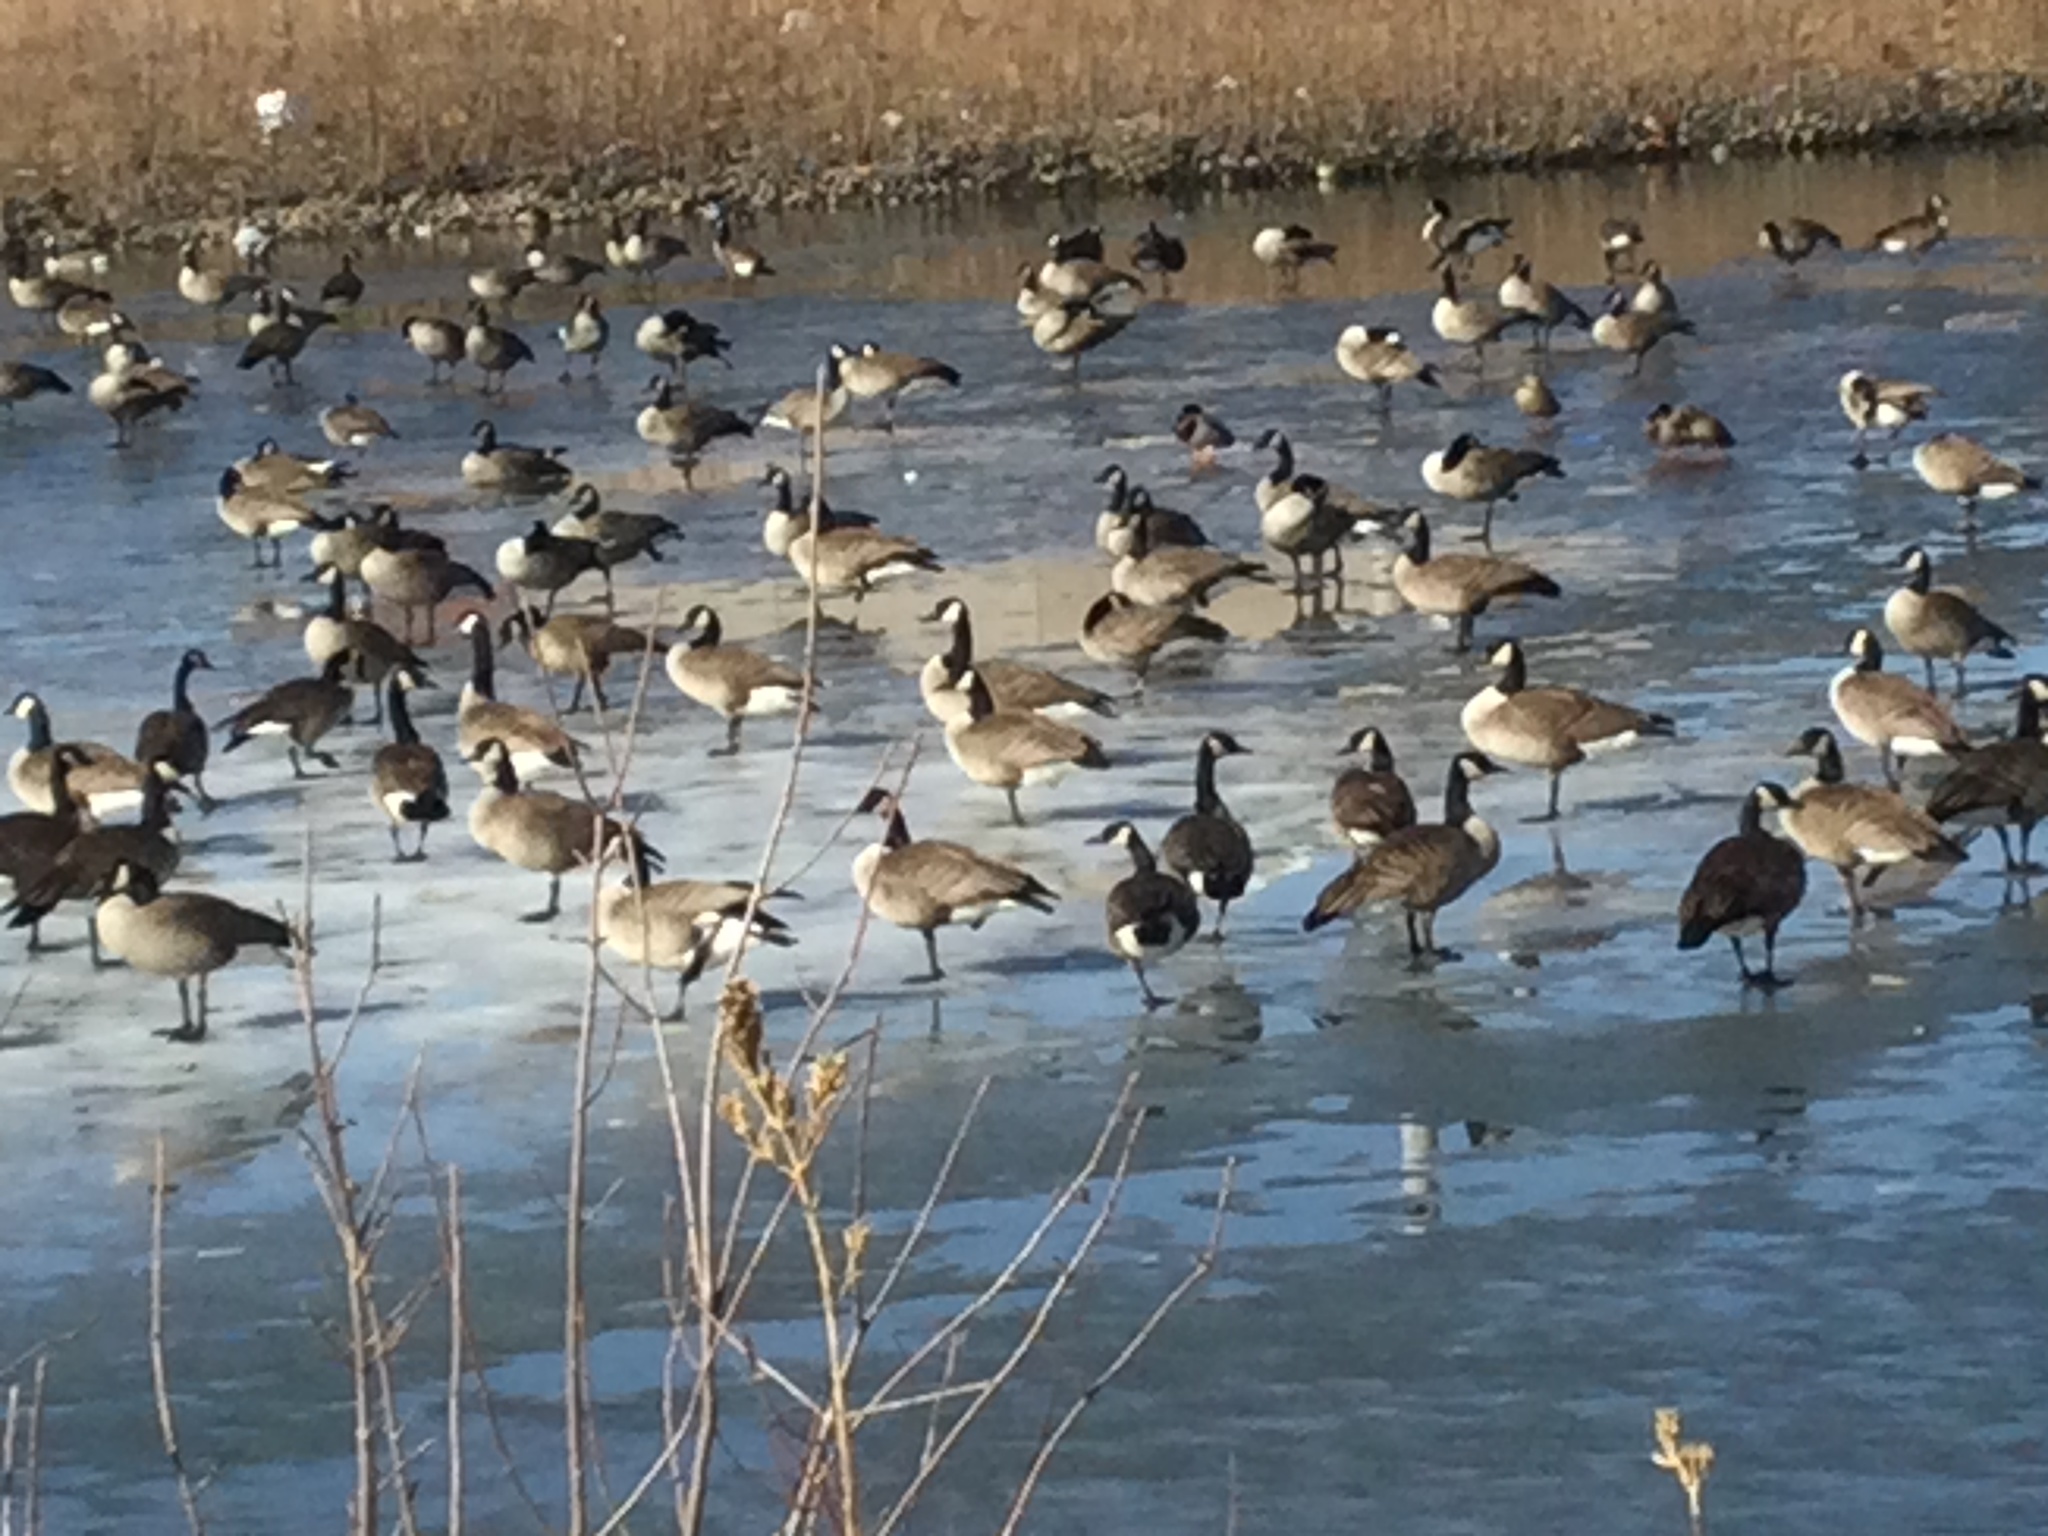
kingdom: Animalia
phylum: Chordata
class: Aves
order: Anseriformes
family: Anatidae
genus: Branta
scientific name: Branta canadensis
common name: Canada goose
